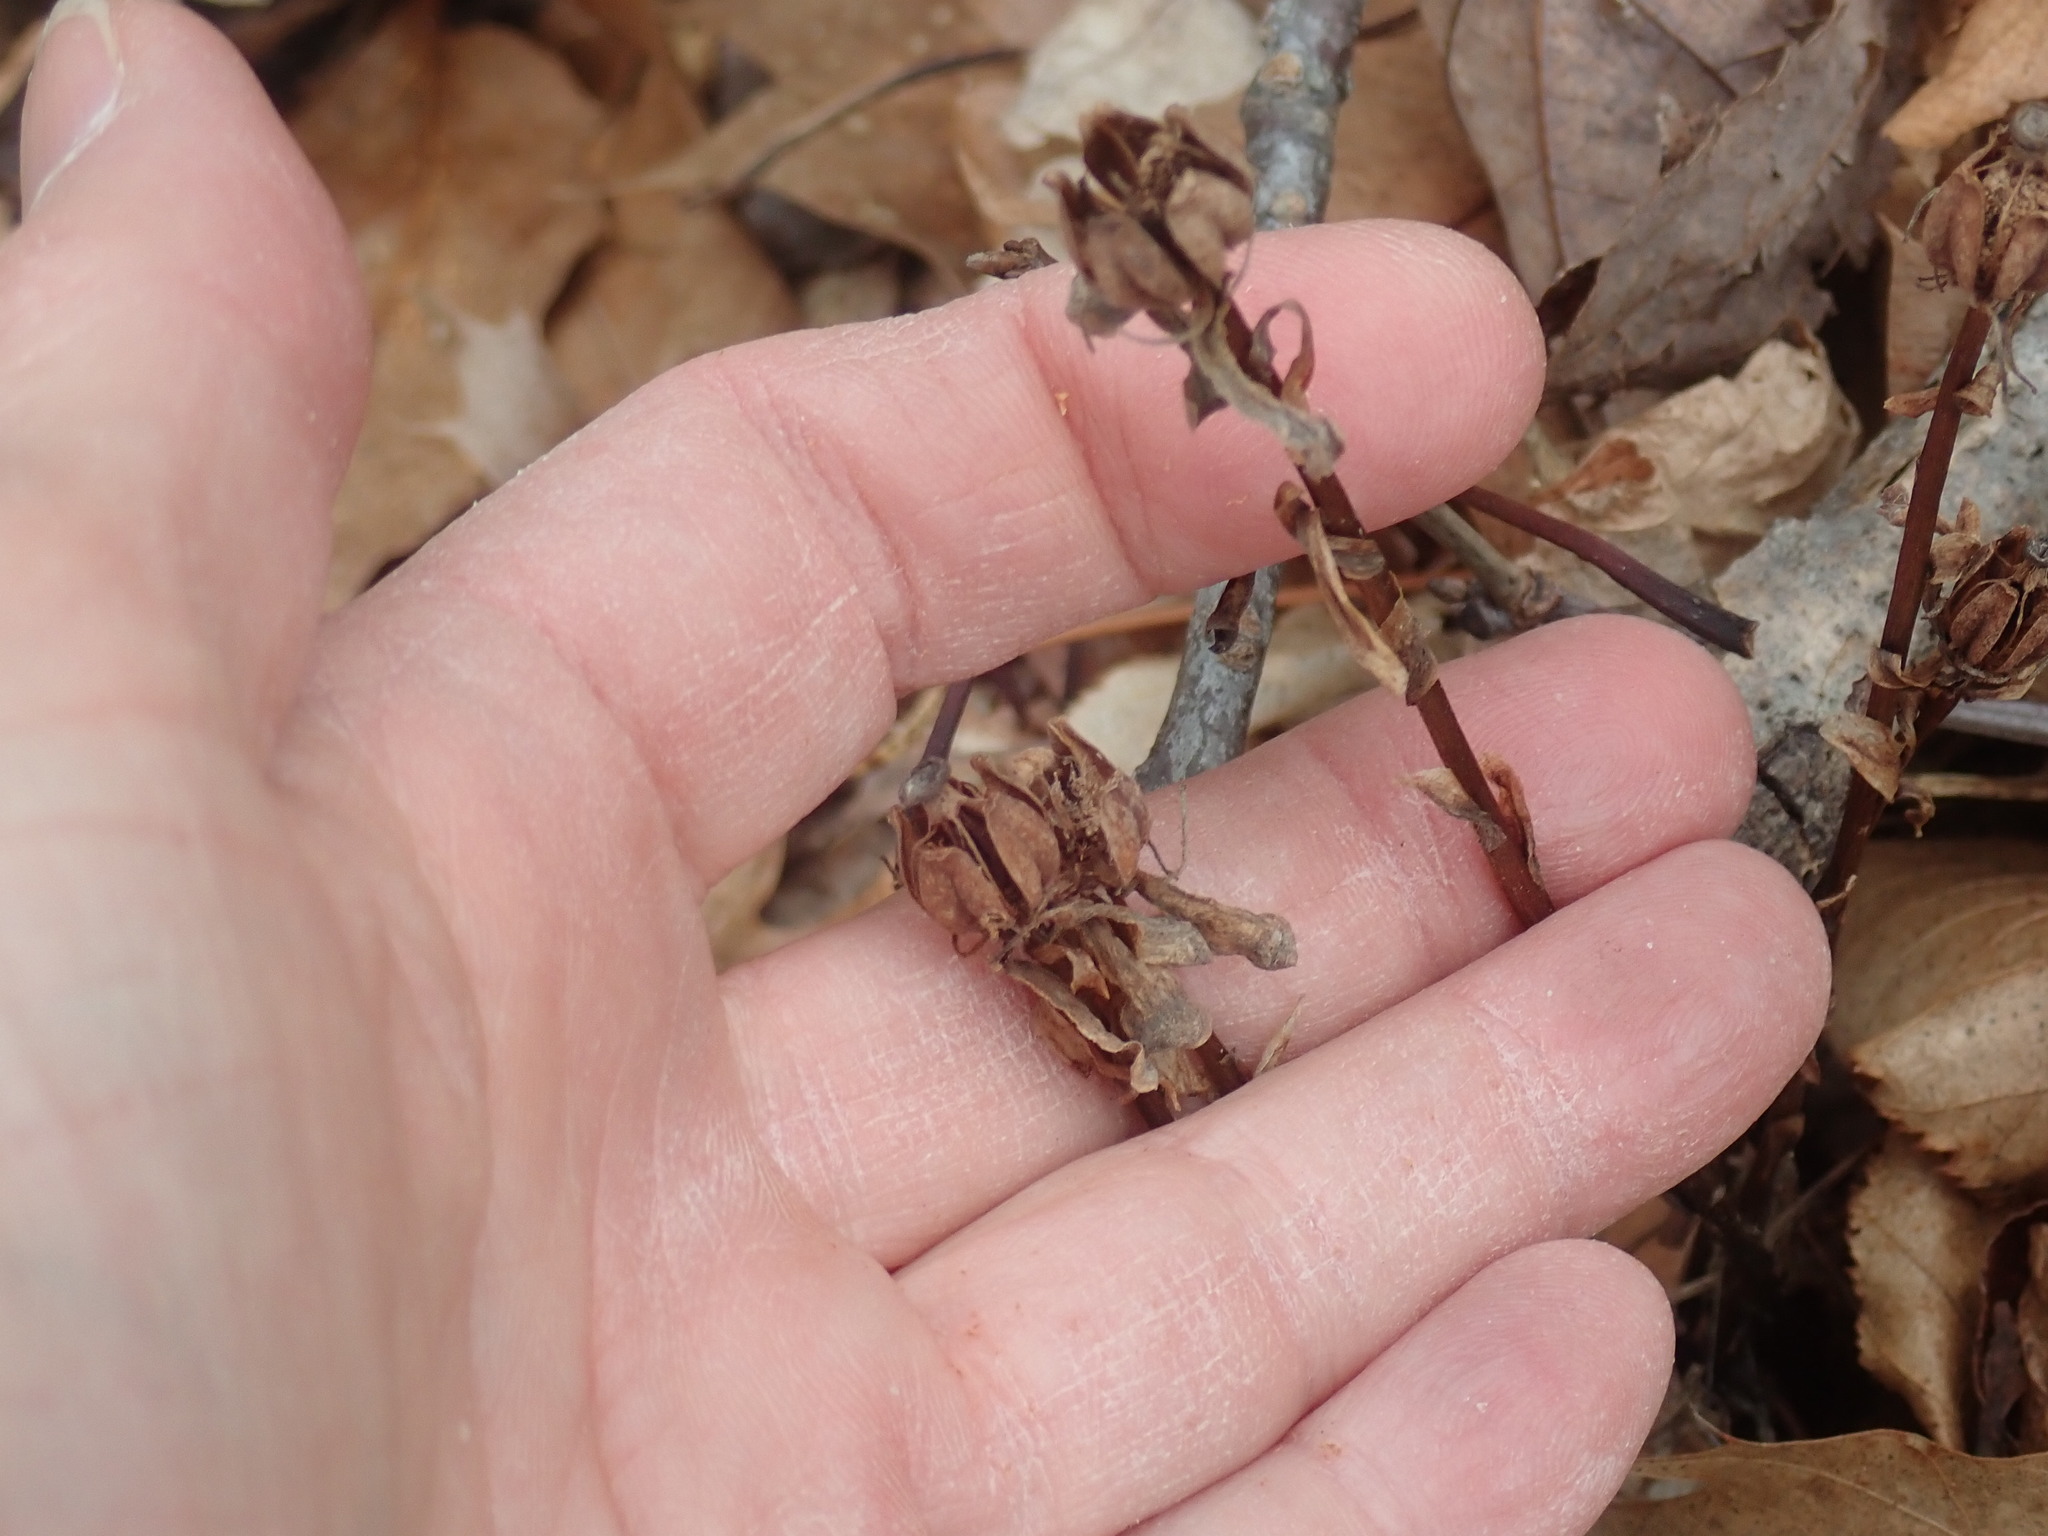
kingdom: Plantae
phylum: Tracheophyta
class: Magnoliopsida
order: Ericales
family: Ericaceae
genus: Monotropa
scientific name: Monotropa uniflora
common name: Convulsion root
